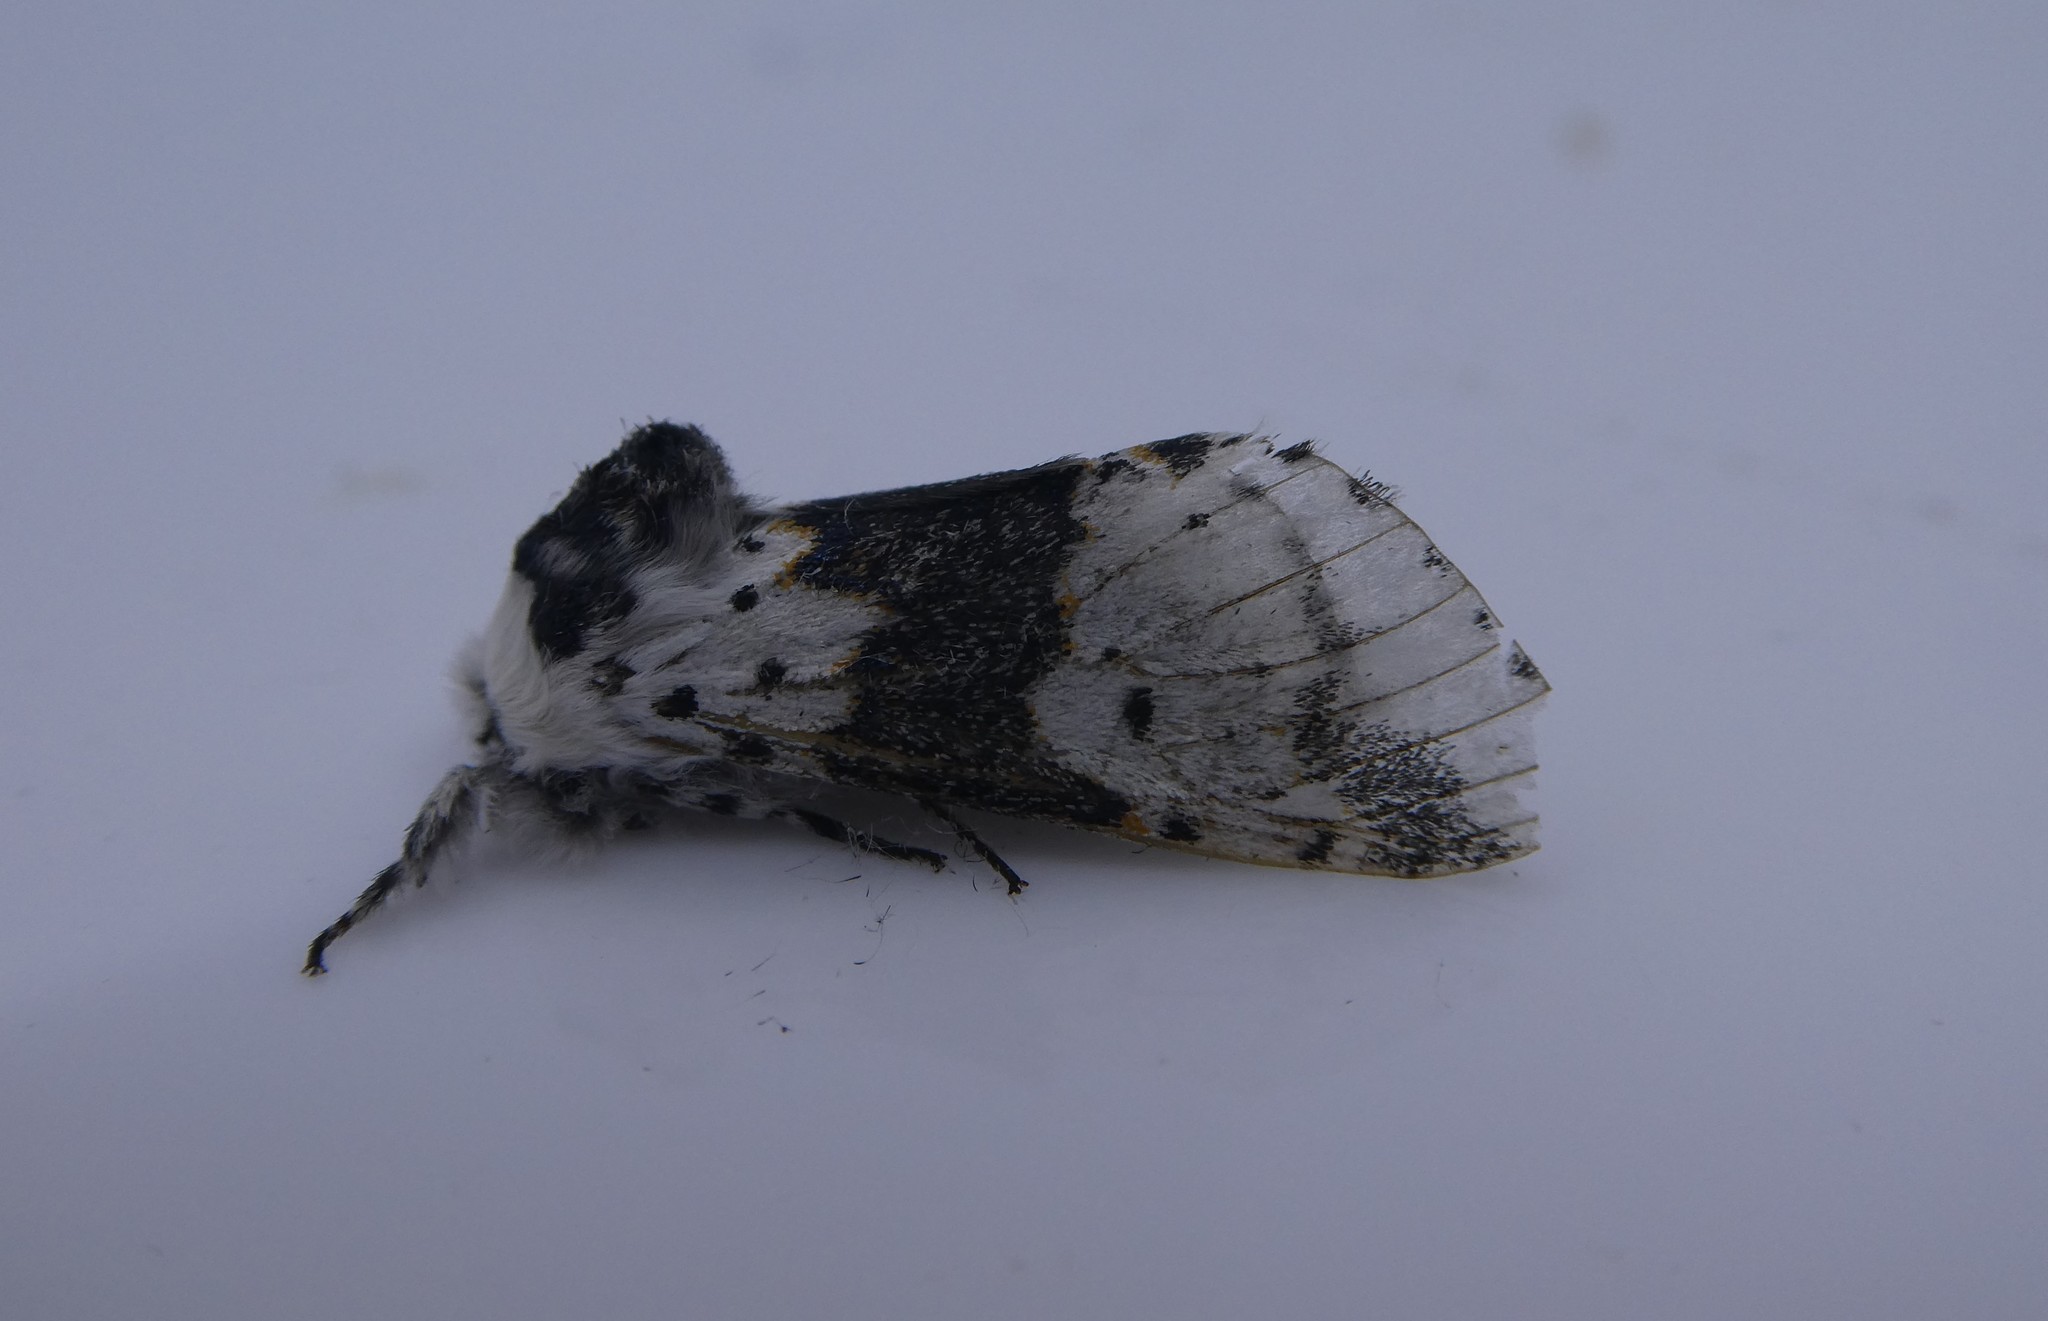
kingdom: Animalia
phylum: Arthropoda
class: Insecta
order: Lepidoptera
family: Notodontidae
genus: Furcula
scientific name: Furcula borealis
